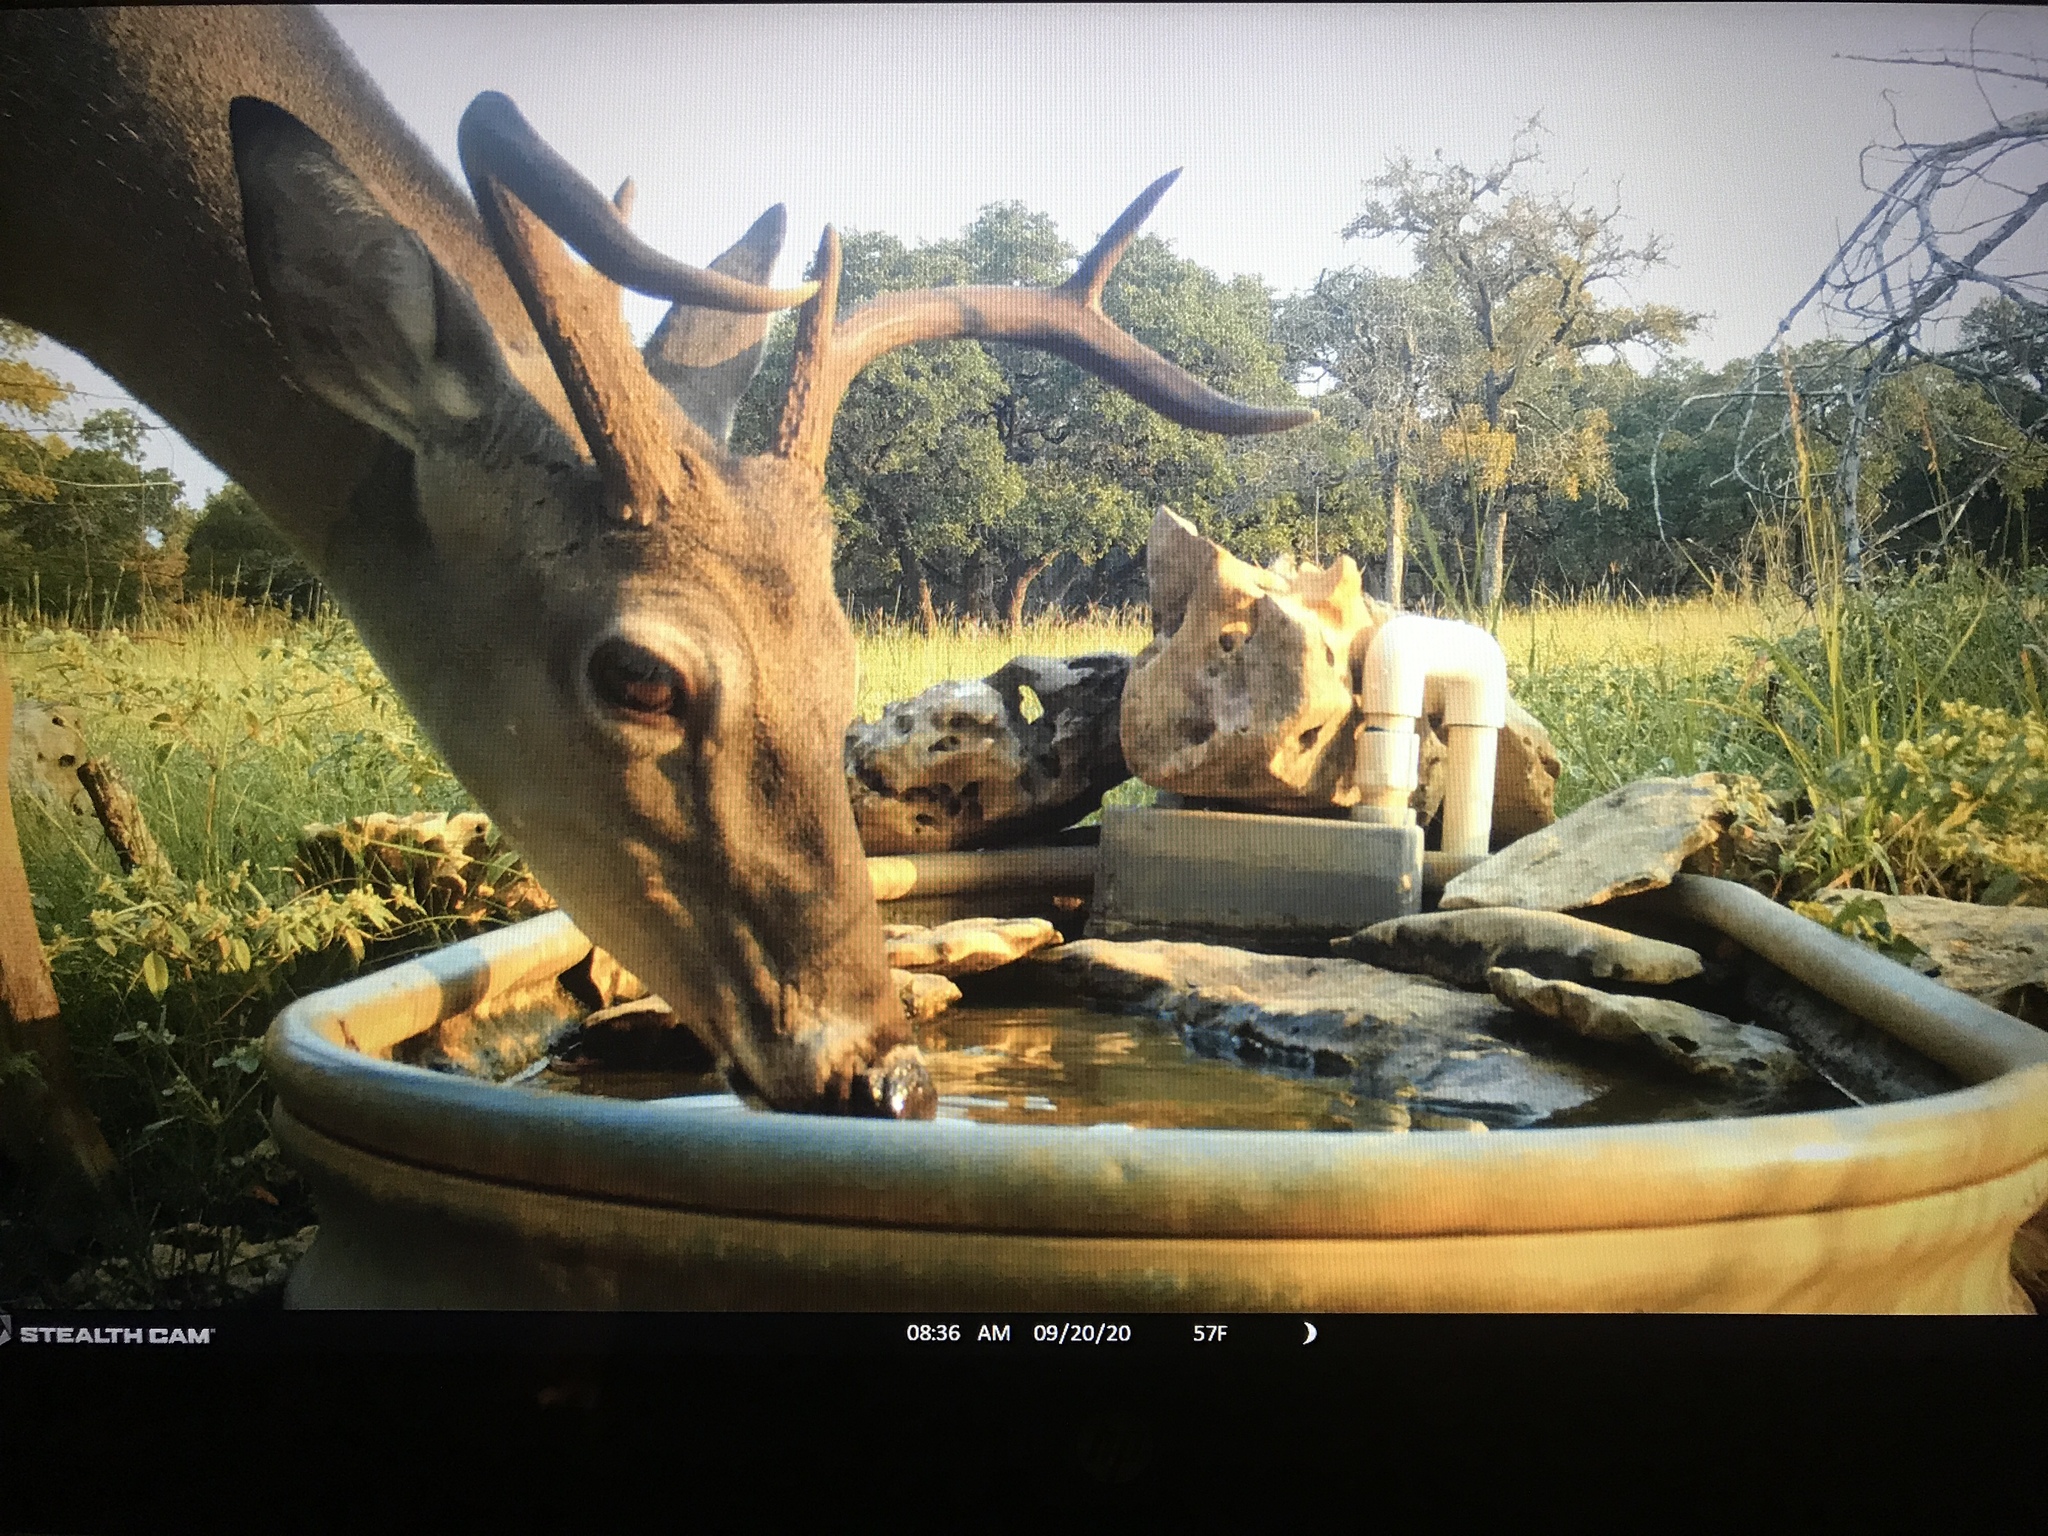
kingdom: Animalia
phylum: Chordata
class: Mammalia
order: Artiodactyla
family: Cervidae
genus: Odocoileus
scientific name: Odocoileus virginianus
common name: White-tailed deer
